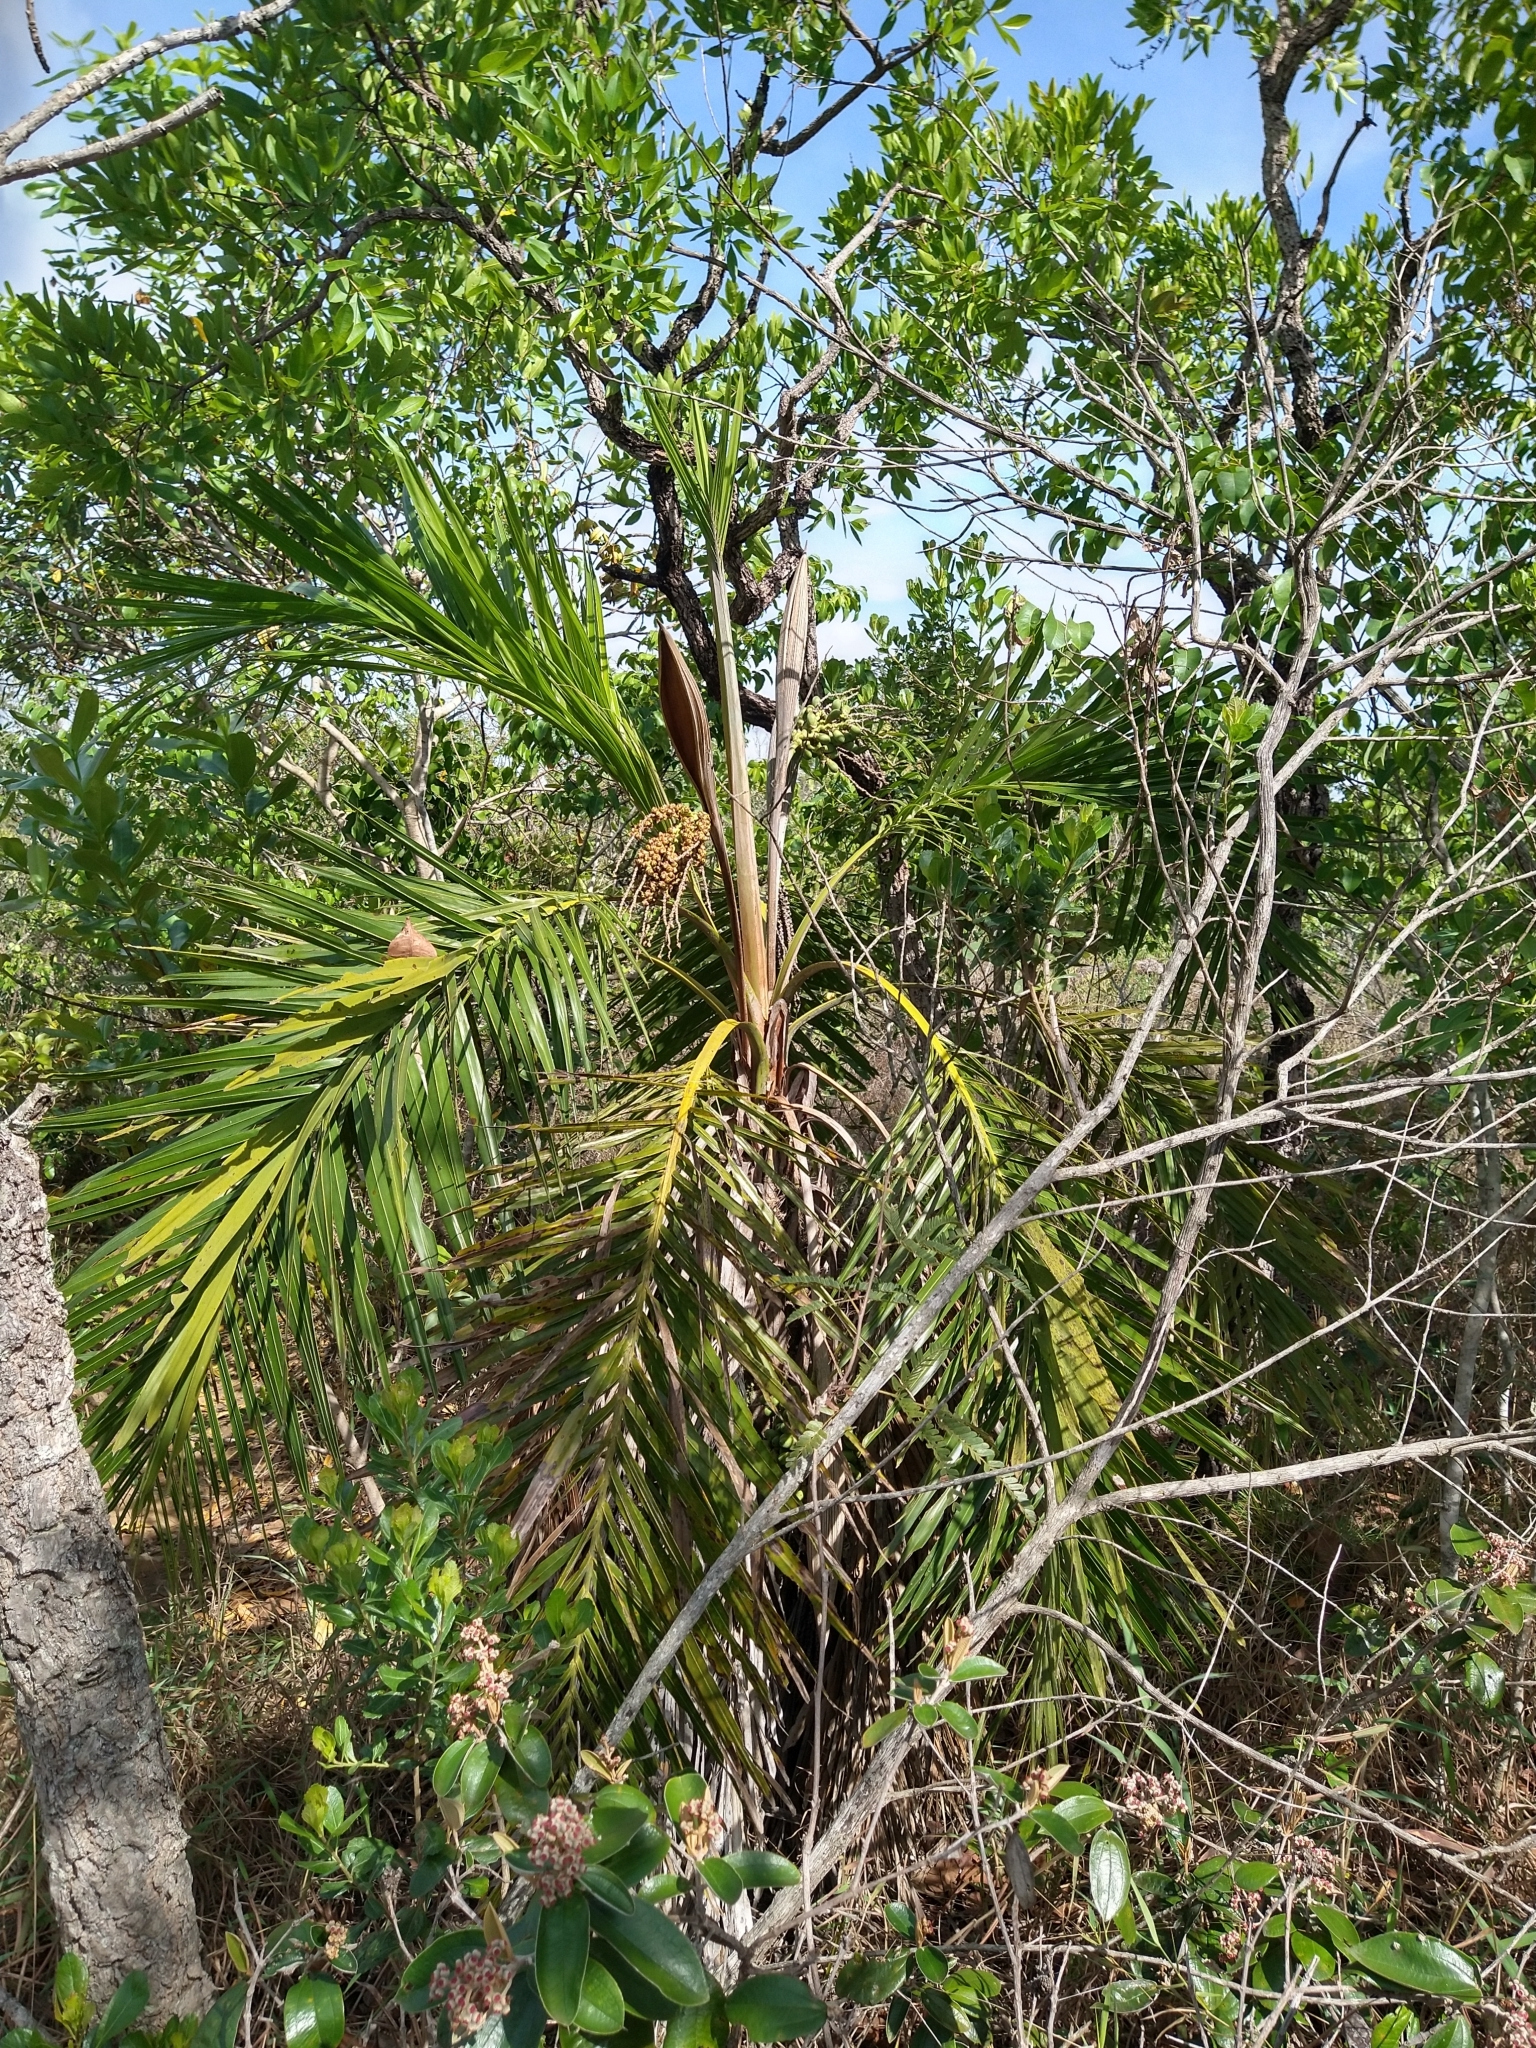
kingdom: Plantae
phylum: Tracheophyta
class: Liliopsida
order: Arecales
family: Arecaceae
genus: Syagrus
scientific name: Syagrus comosa
